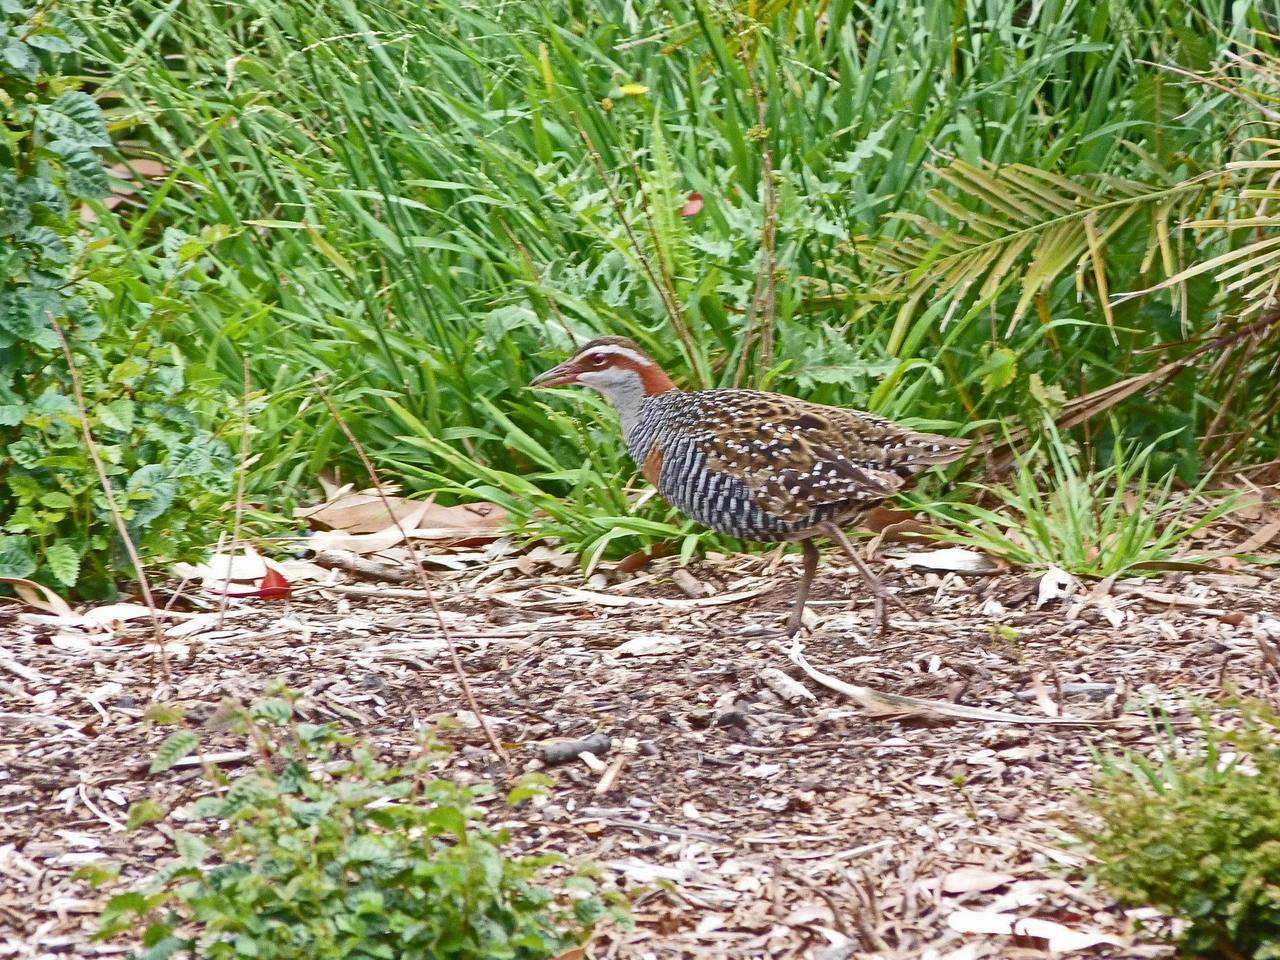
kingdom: Animalia
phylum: Chordata
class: Aves
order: Gruiformes
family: Rallidae
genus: Gallirallus
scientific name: Gallirallus philippensis
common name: Buff-banded rail
